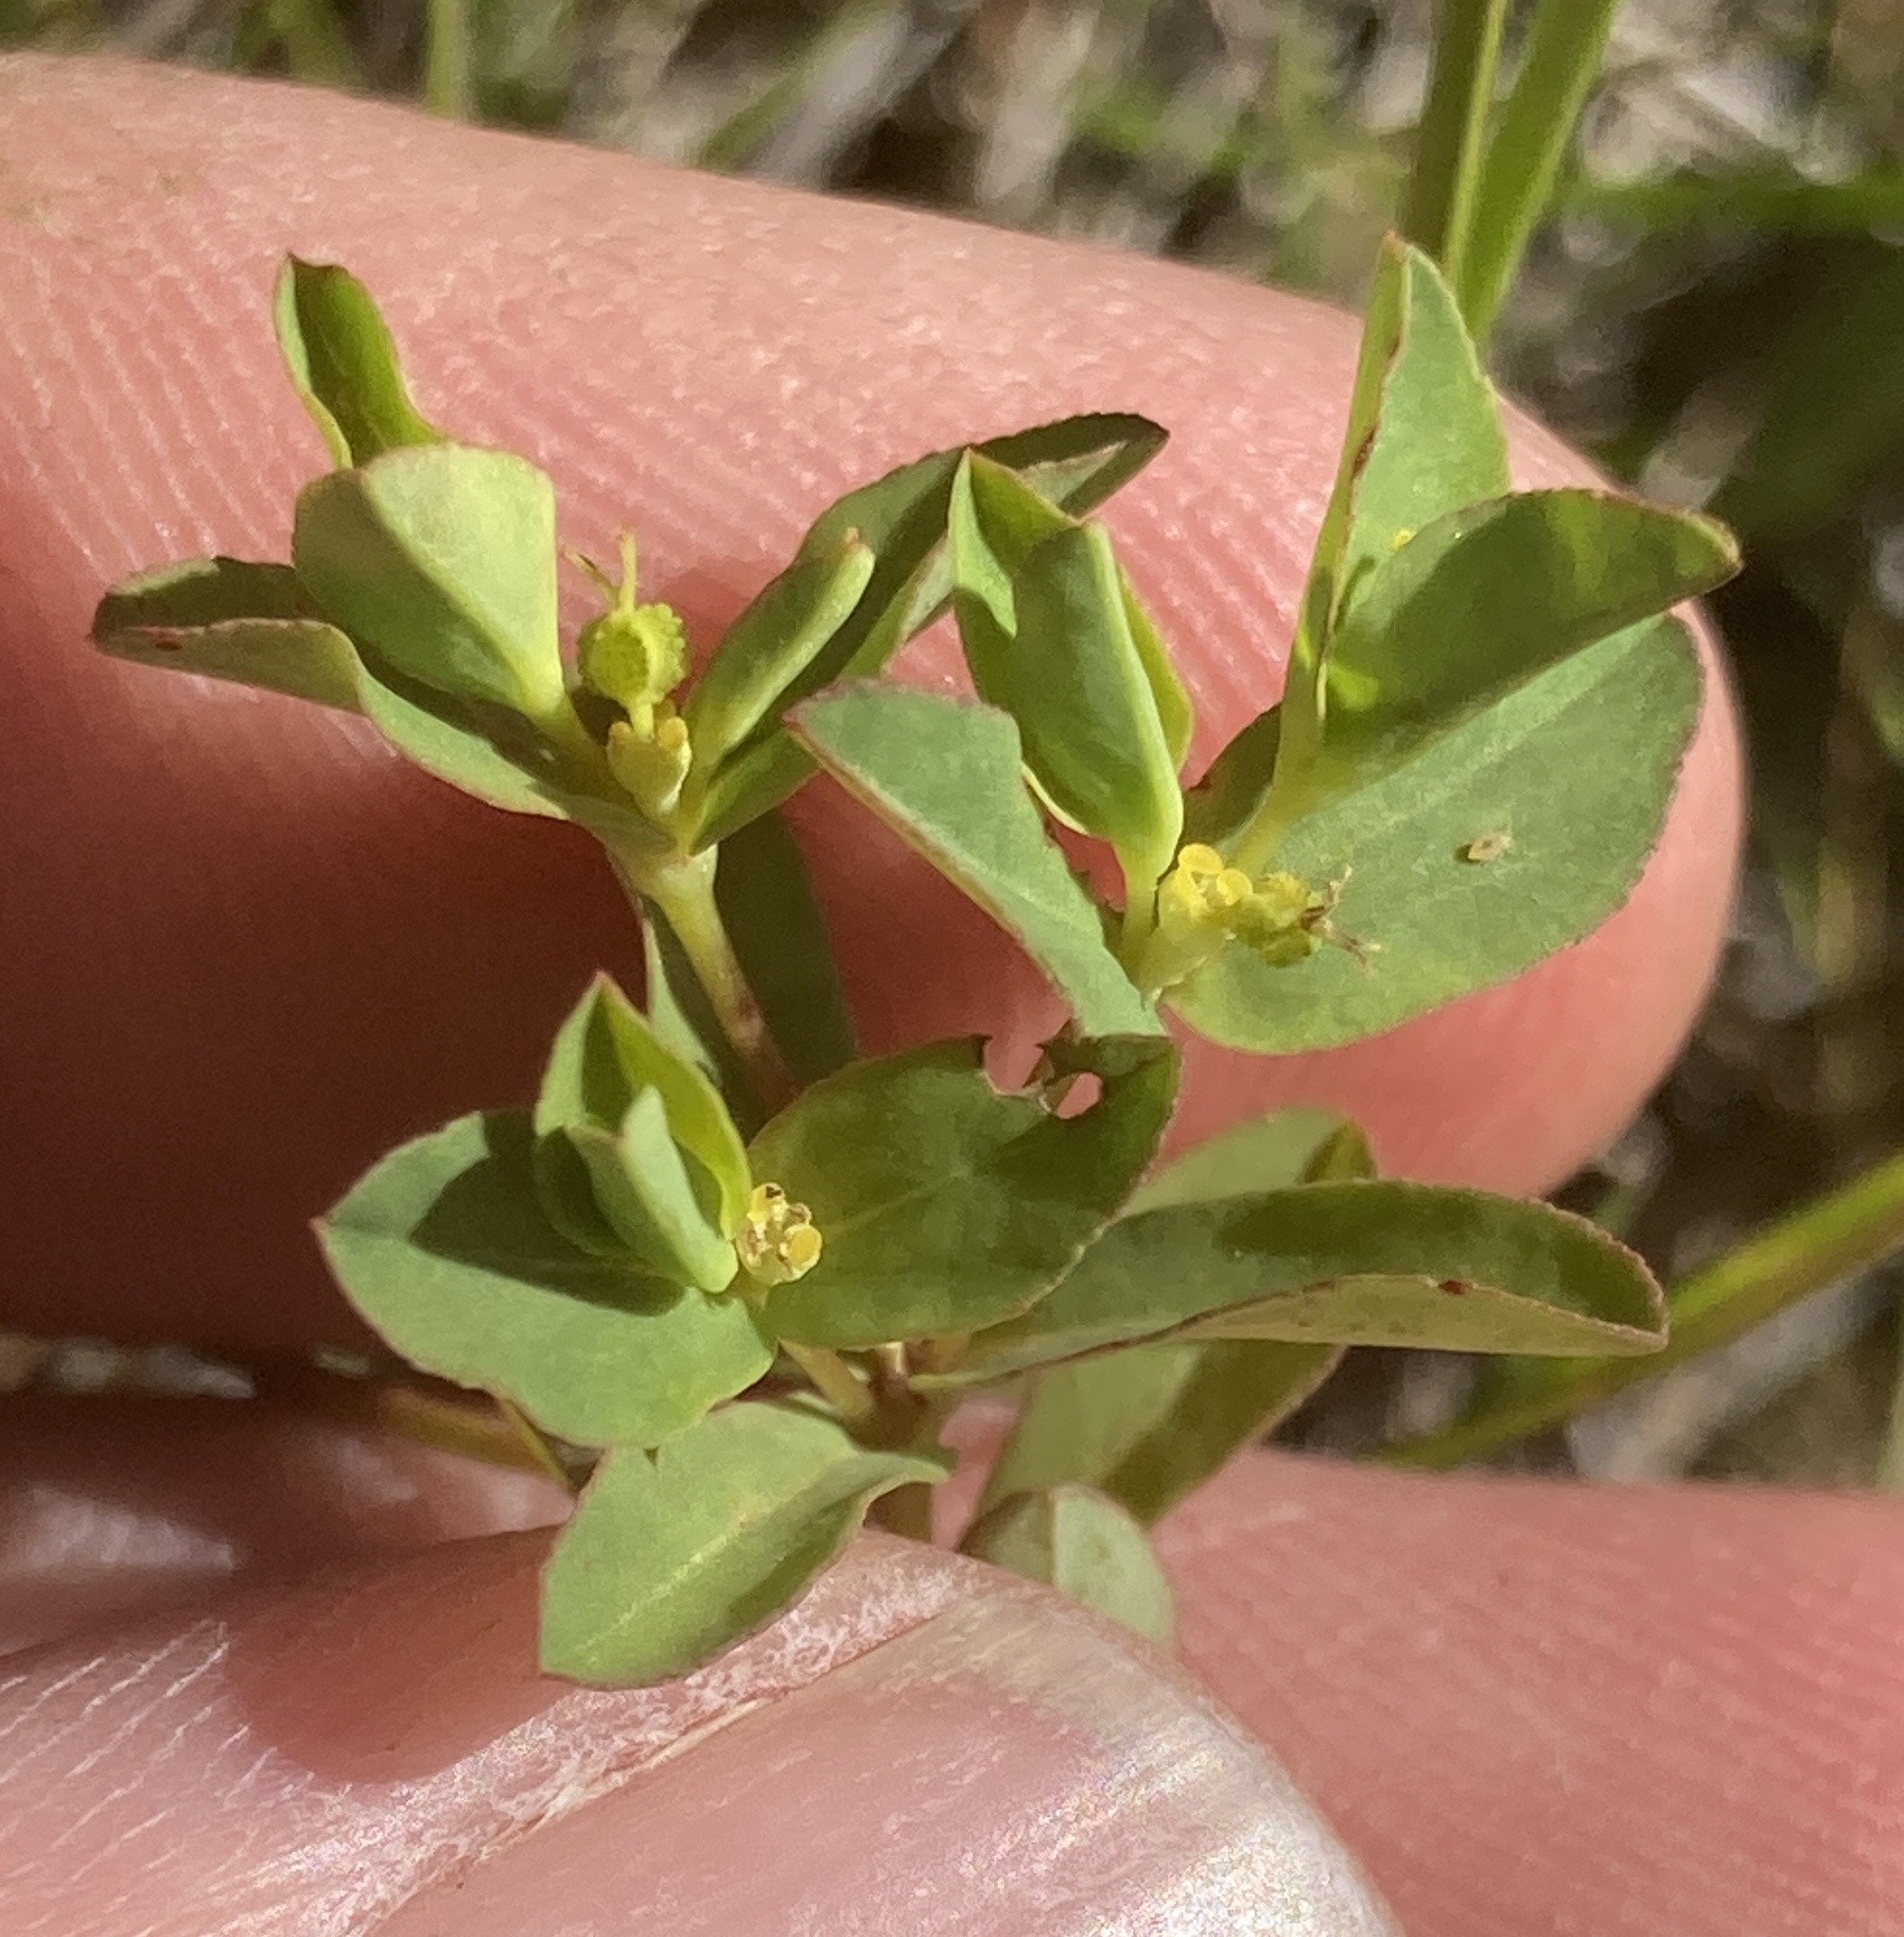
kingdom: Plantae
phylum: Tracheophyta
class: Magnoliopsida
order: Malpighiales
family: Euphorbiaceae
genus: Euphorbia
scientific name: Euphorbia spathulata
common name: Blunt spurge
